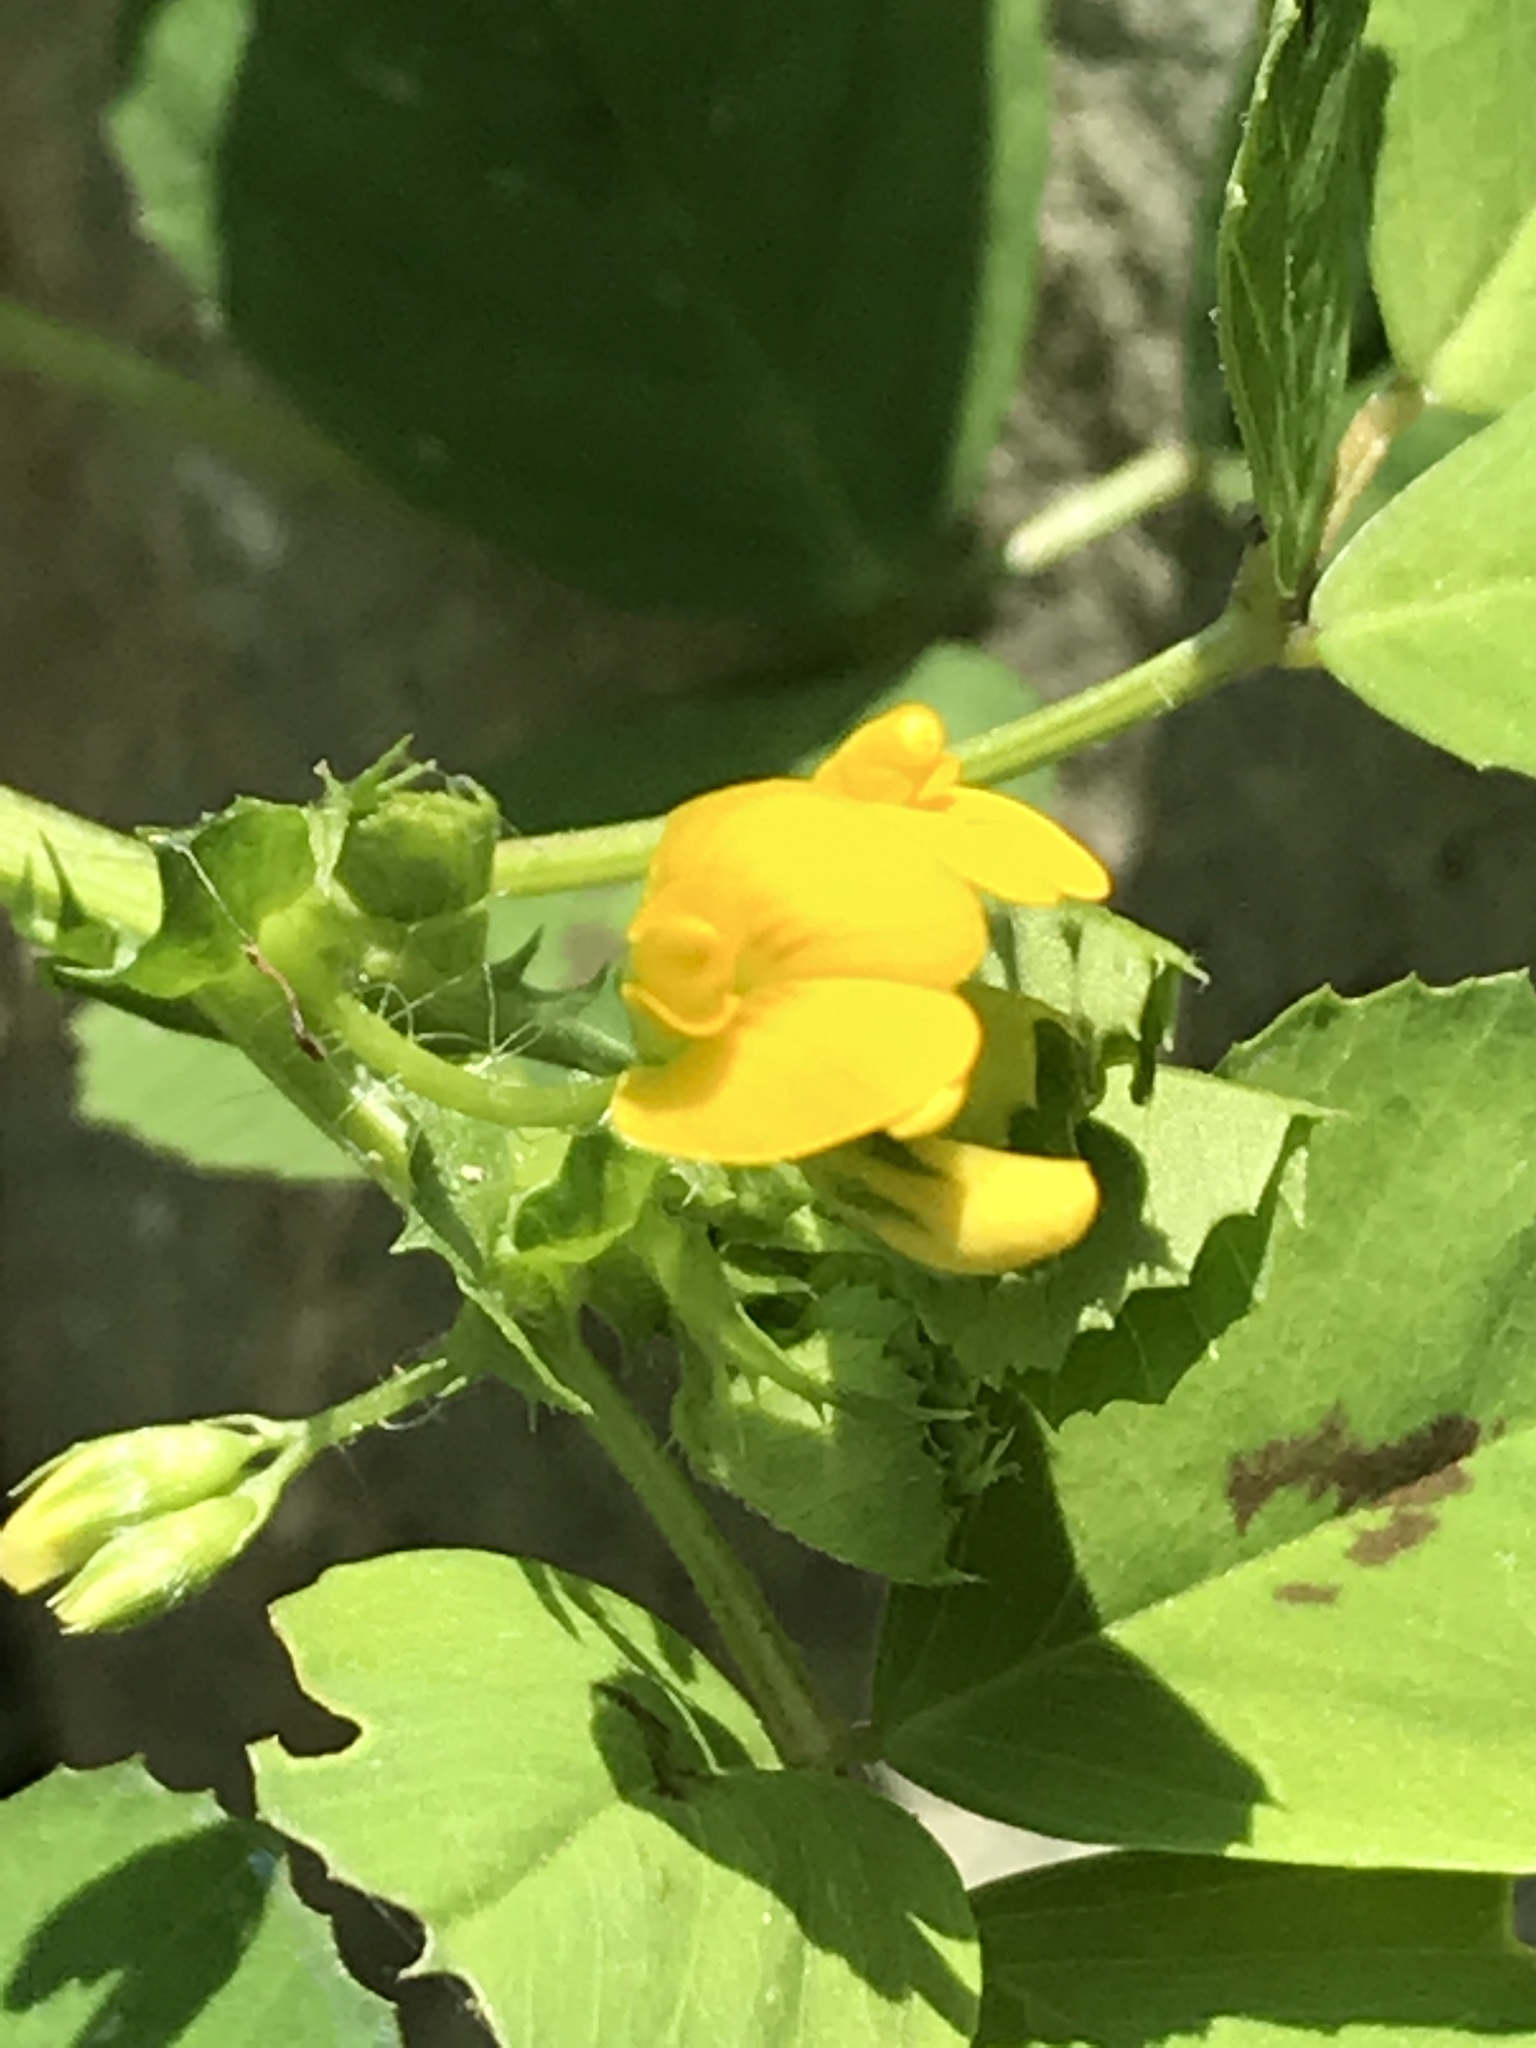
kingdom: Plantae
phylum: Tracheophyta
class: Magnoliopsida
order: Fabales
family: Fabaceae
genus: Medicago
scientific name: Medicago arabica
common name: Spotted medick
